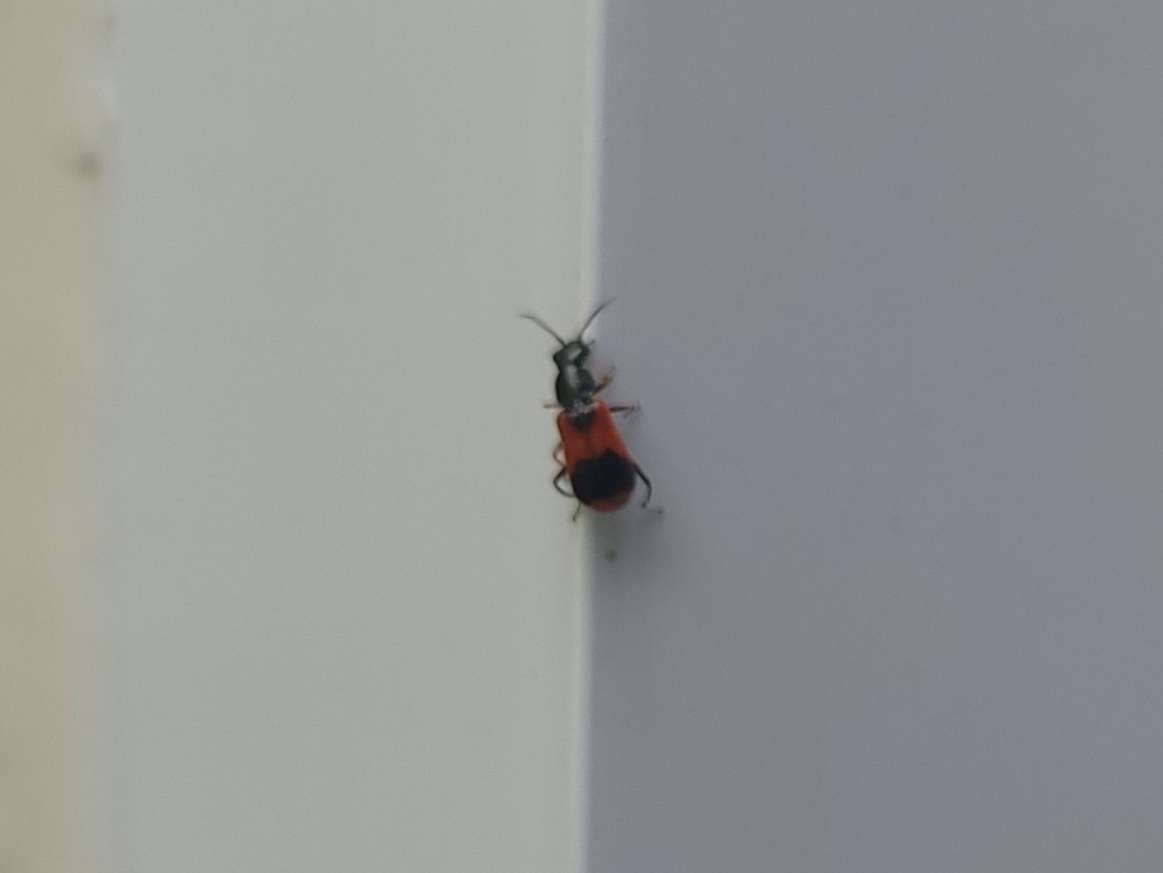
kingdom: Animalia
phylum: Arthropoda
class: Insecta
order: Coleoptera
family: Melyridae
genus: Anthocomus
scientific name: Anthocomus equestris
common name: Black-banded soft-winged flower beetle
